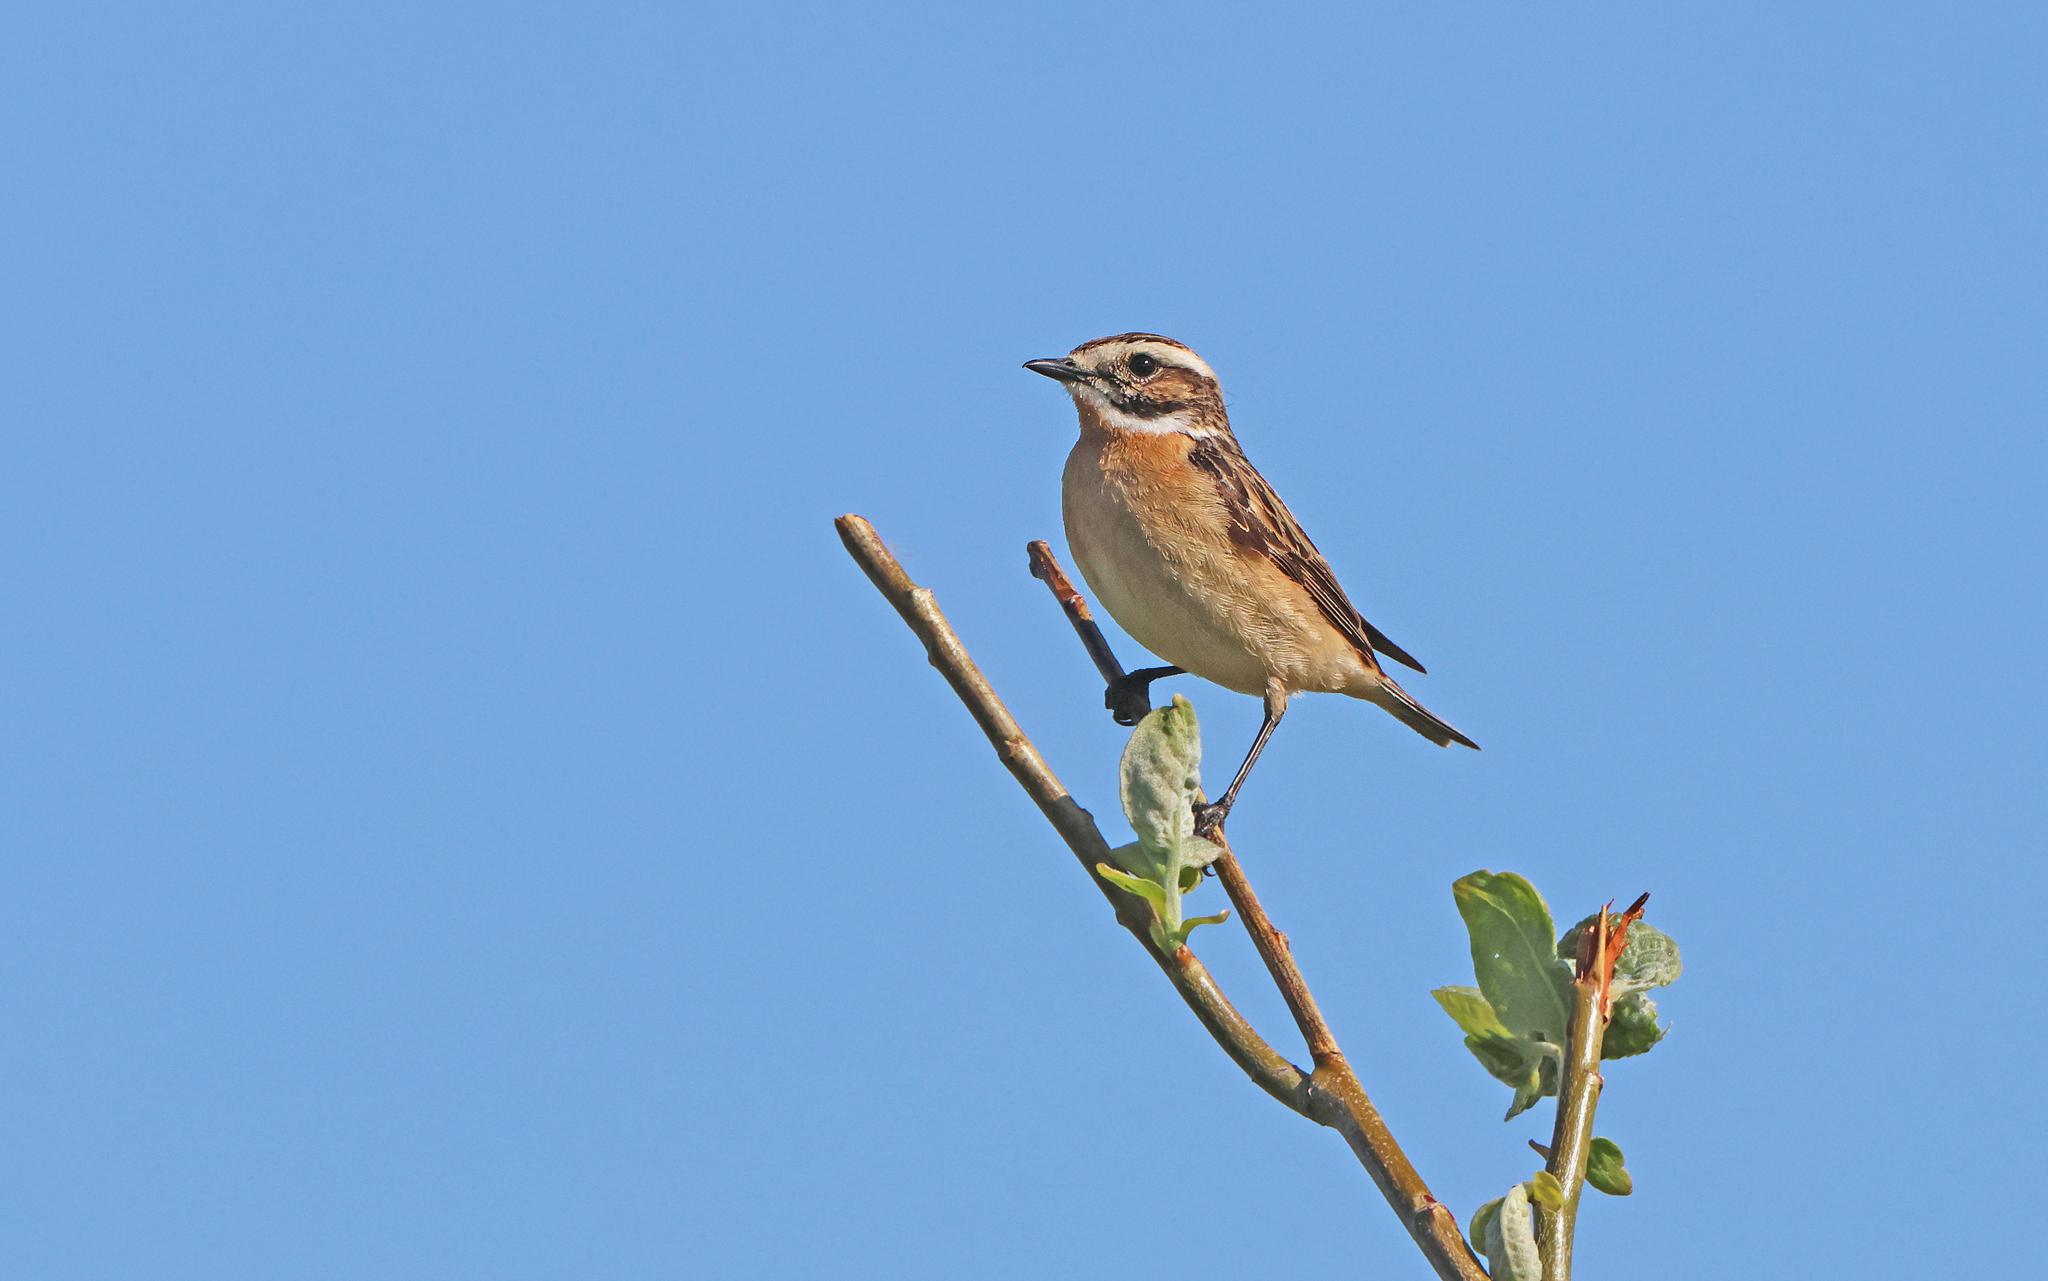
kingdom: Animalia
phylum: Chordata
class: Aves
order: Passeriformes
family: Muscicapidae
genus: Saxicola
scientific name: Saxicola rubetra
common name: Whinchat
